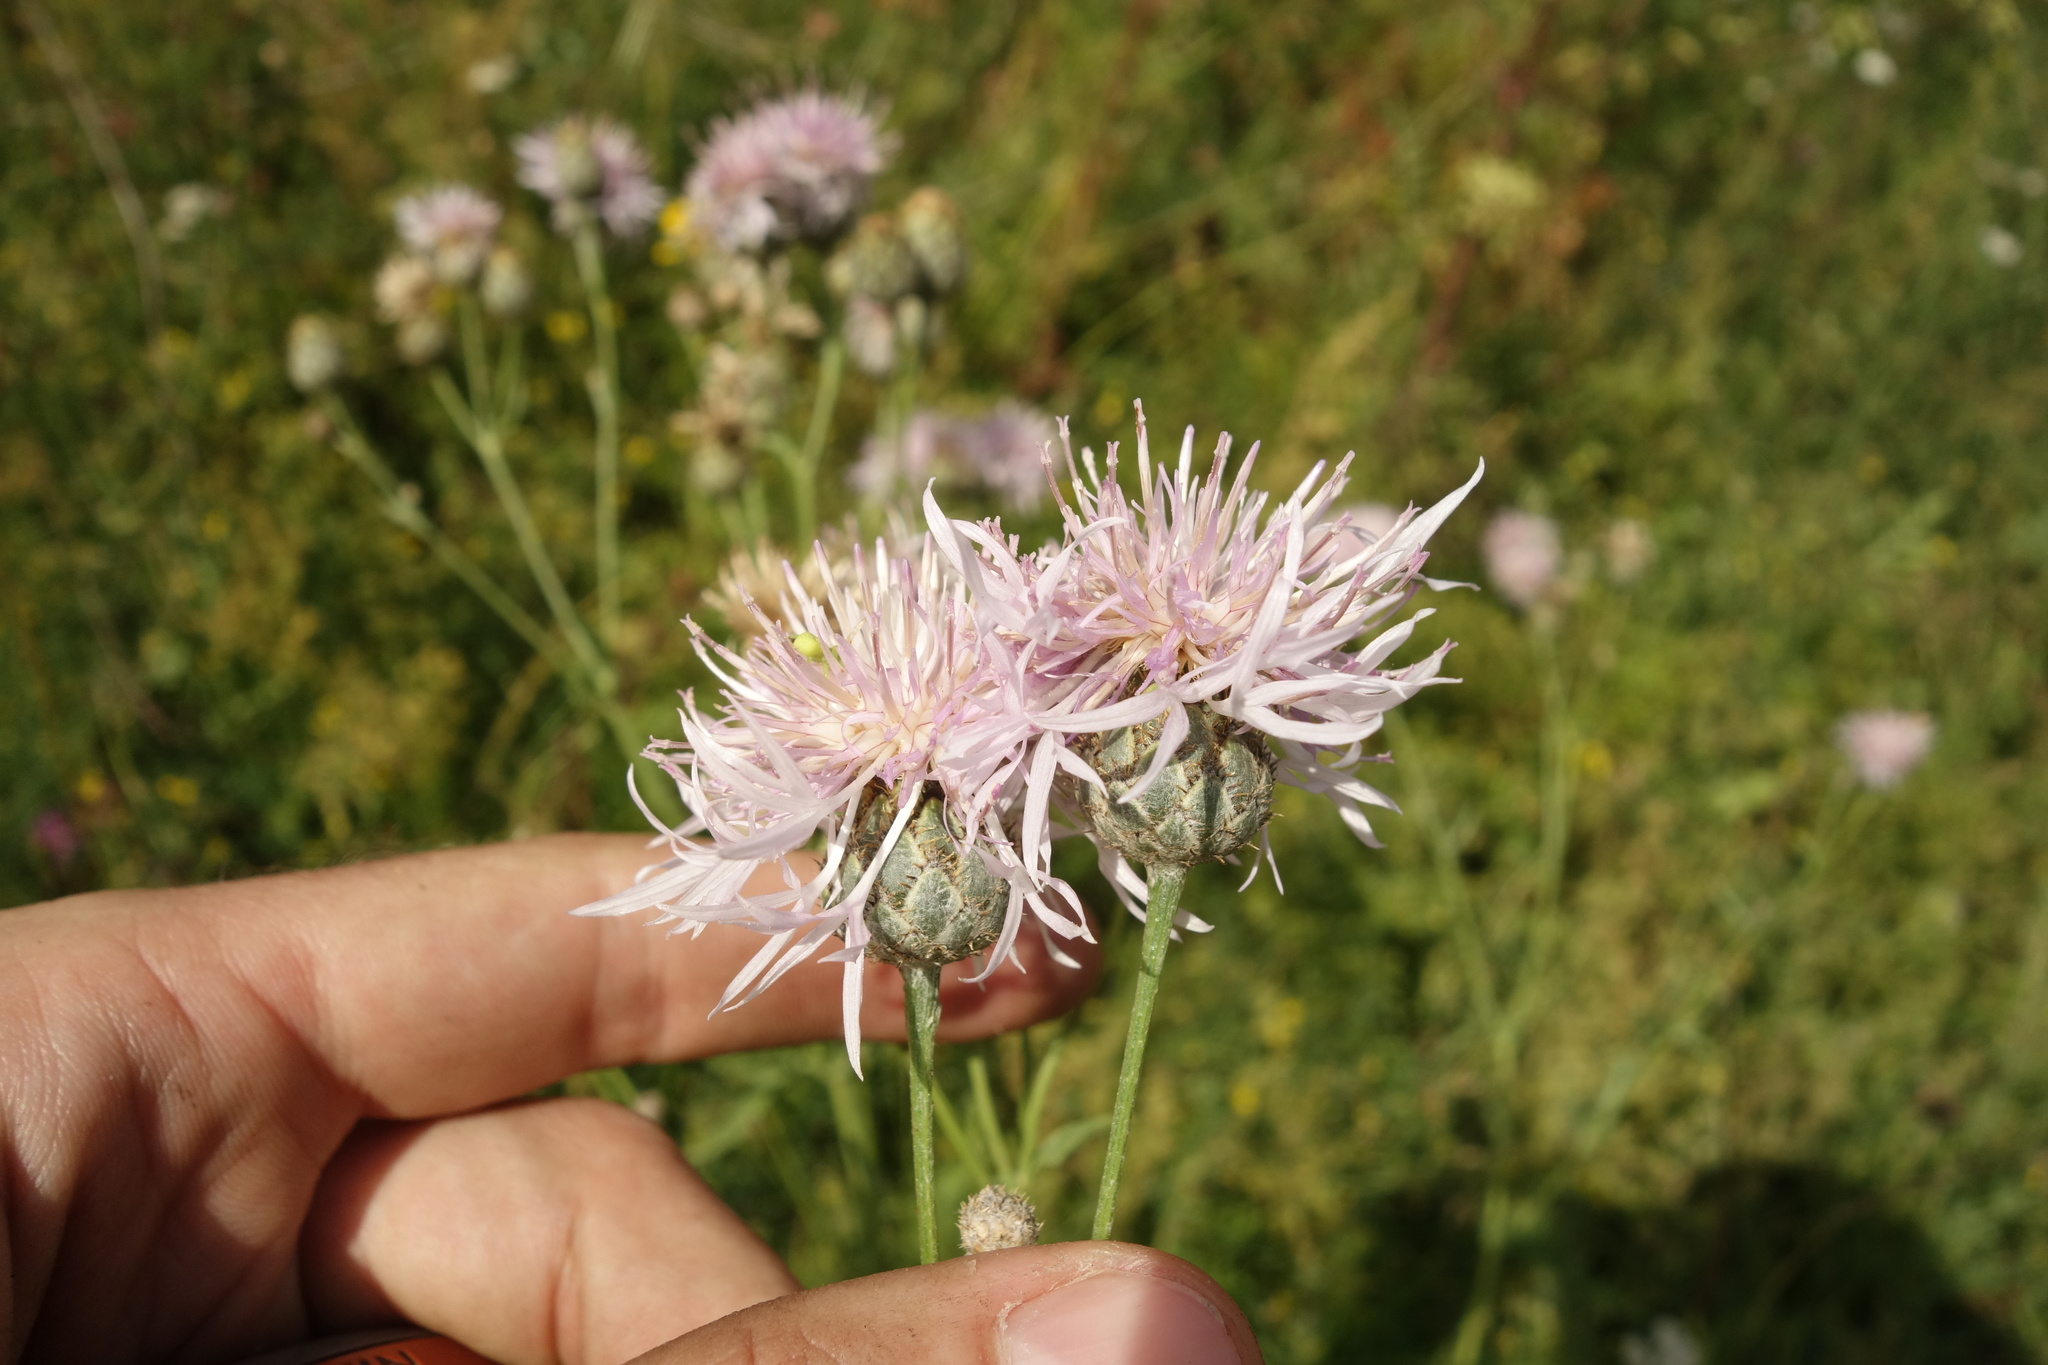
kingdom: Plantae
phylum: Tracheophyta
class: Magnoliopsida
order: Asterales
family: Asteraceae
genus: Centaurea
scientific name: Centaurea scabiosa
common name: Greater knapweed
